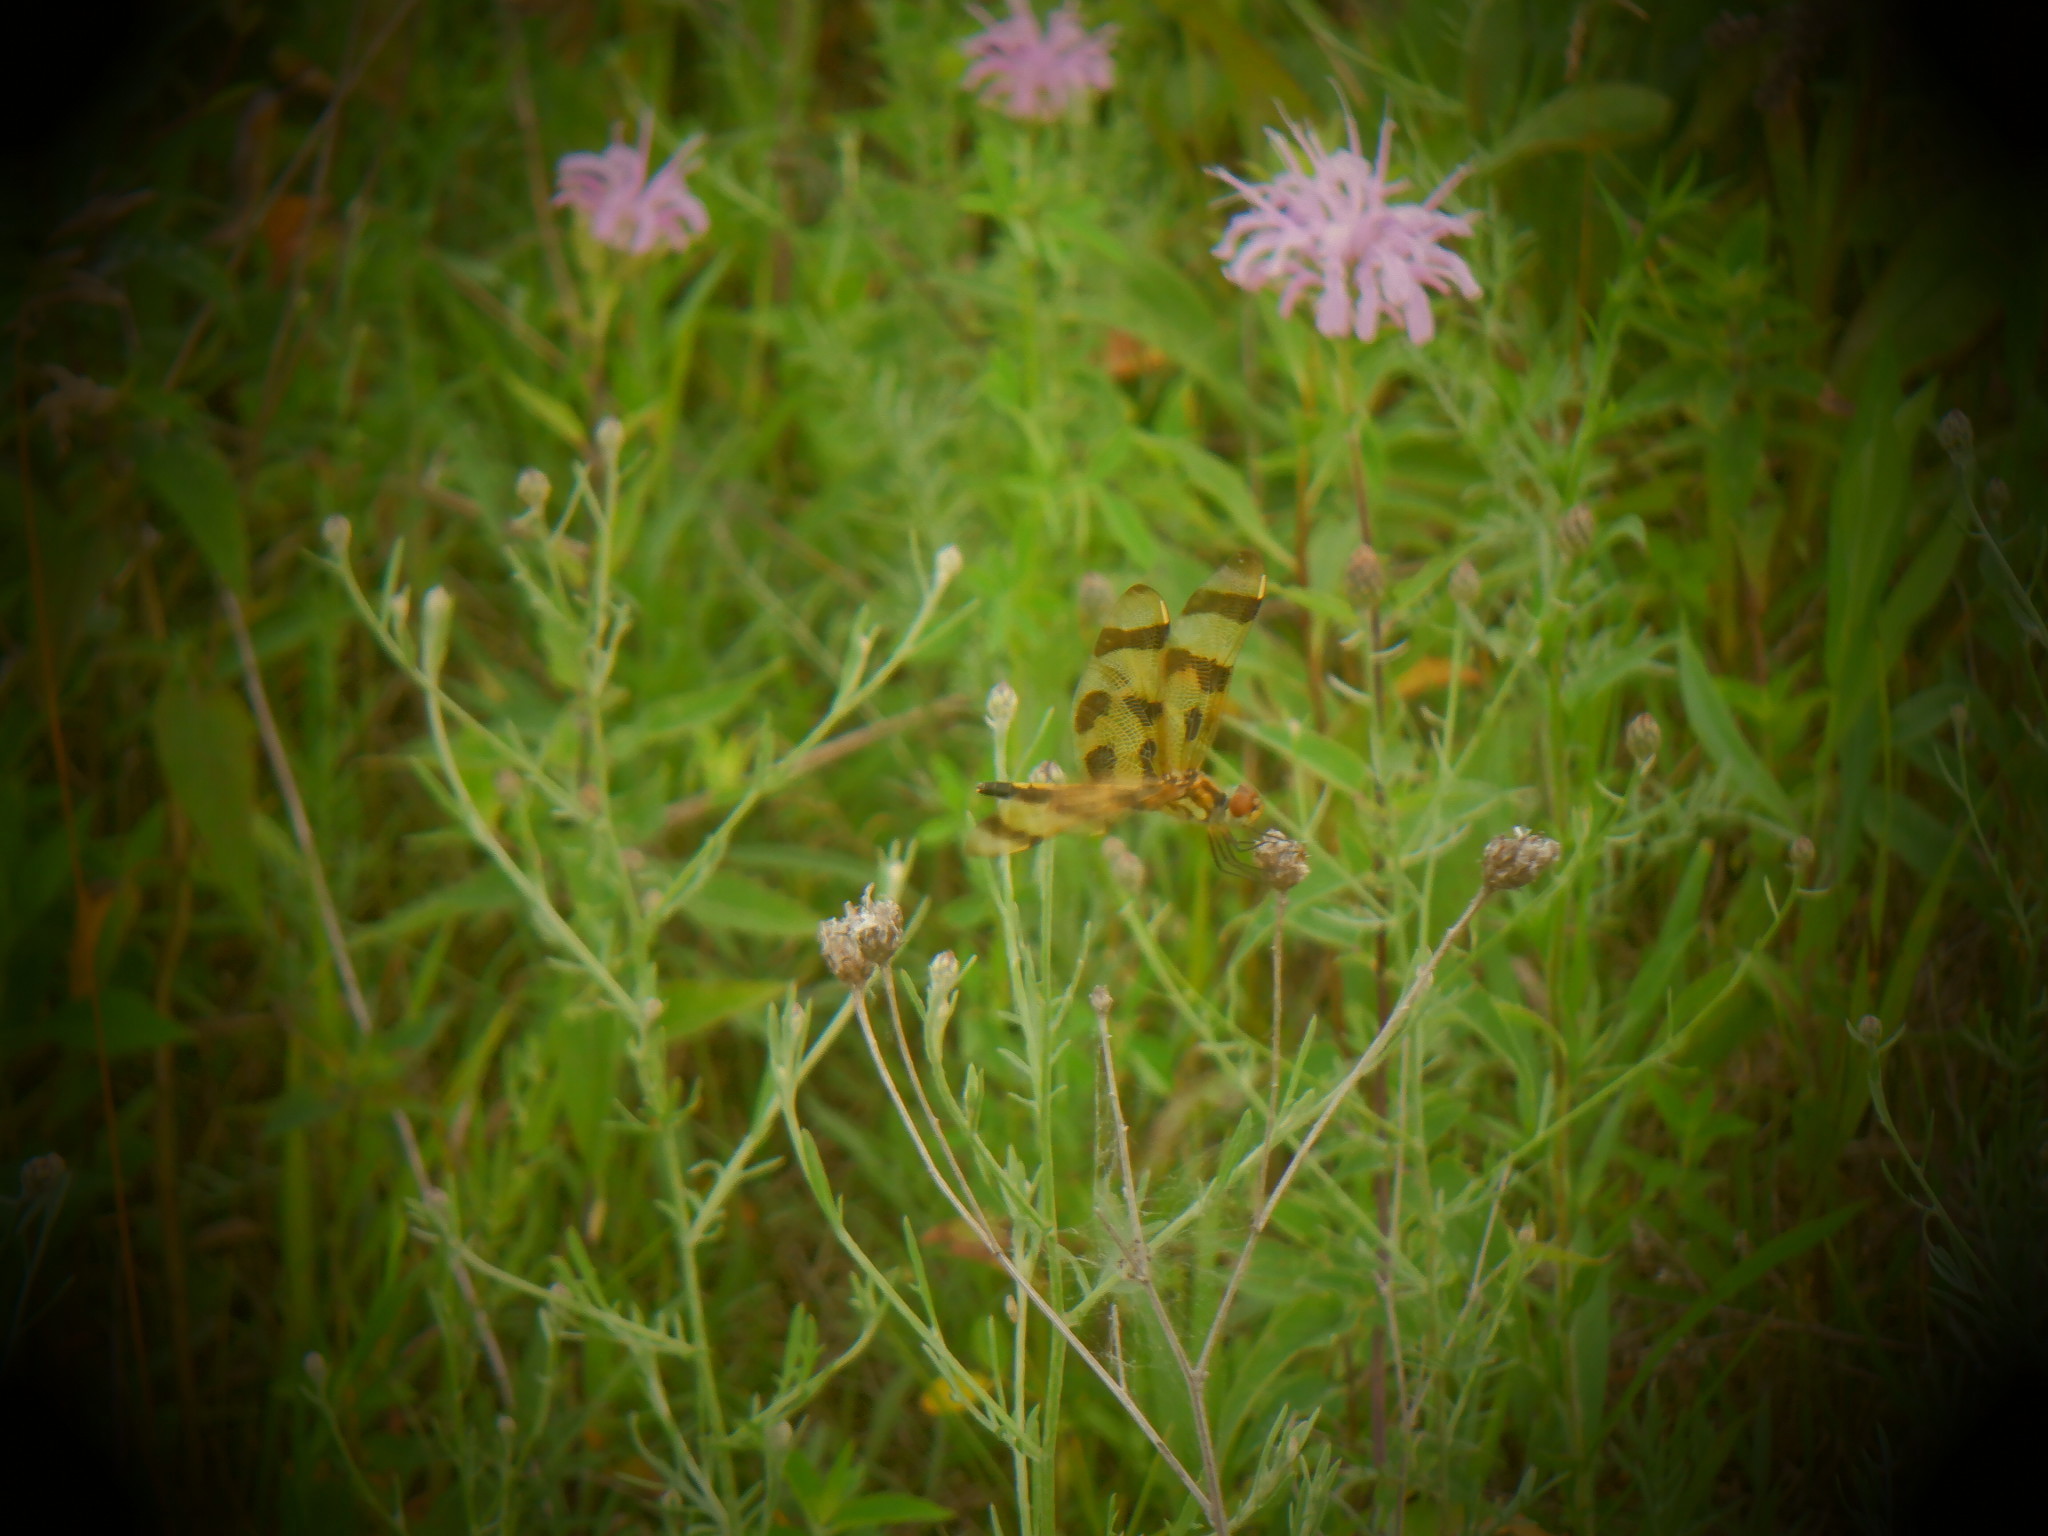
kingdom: Animalia
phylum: Arthropoda
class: Insecta
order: Odonata
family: Libellulidae
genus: Celithemis
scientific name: Celithemis eponina
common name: Halloween pennant
